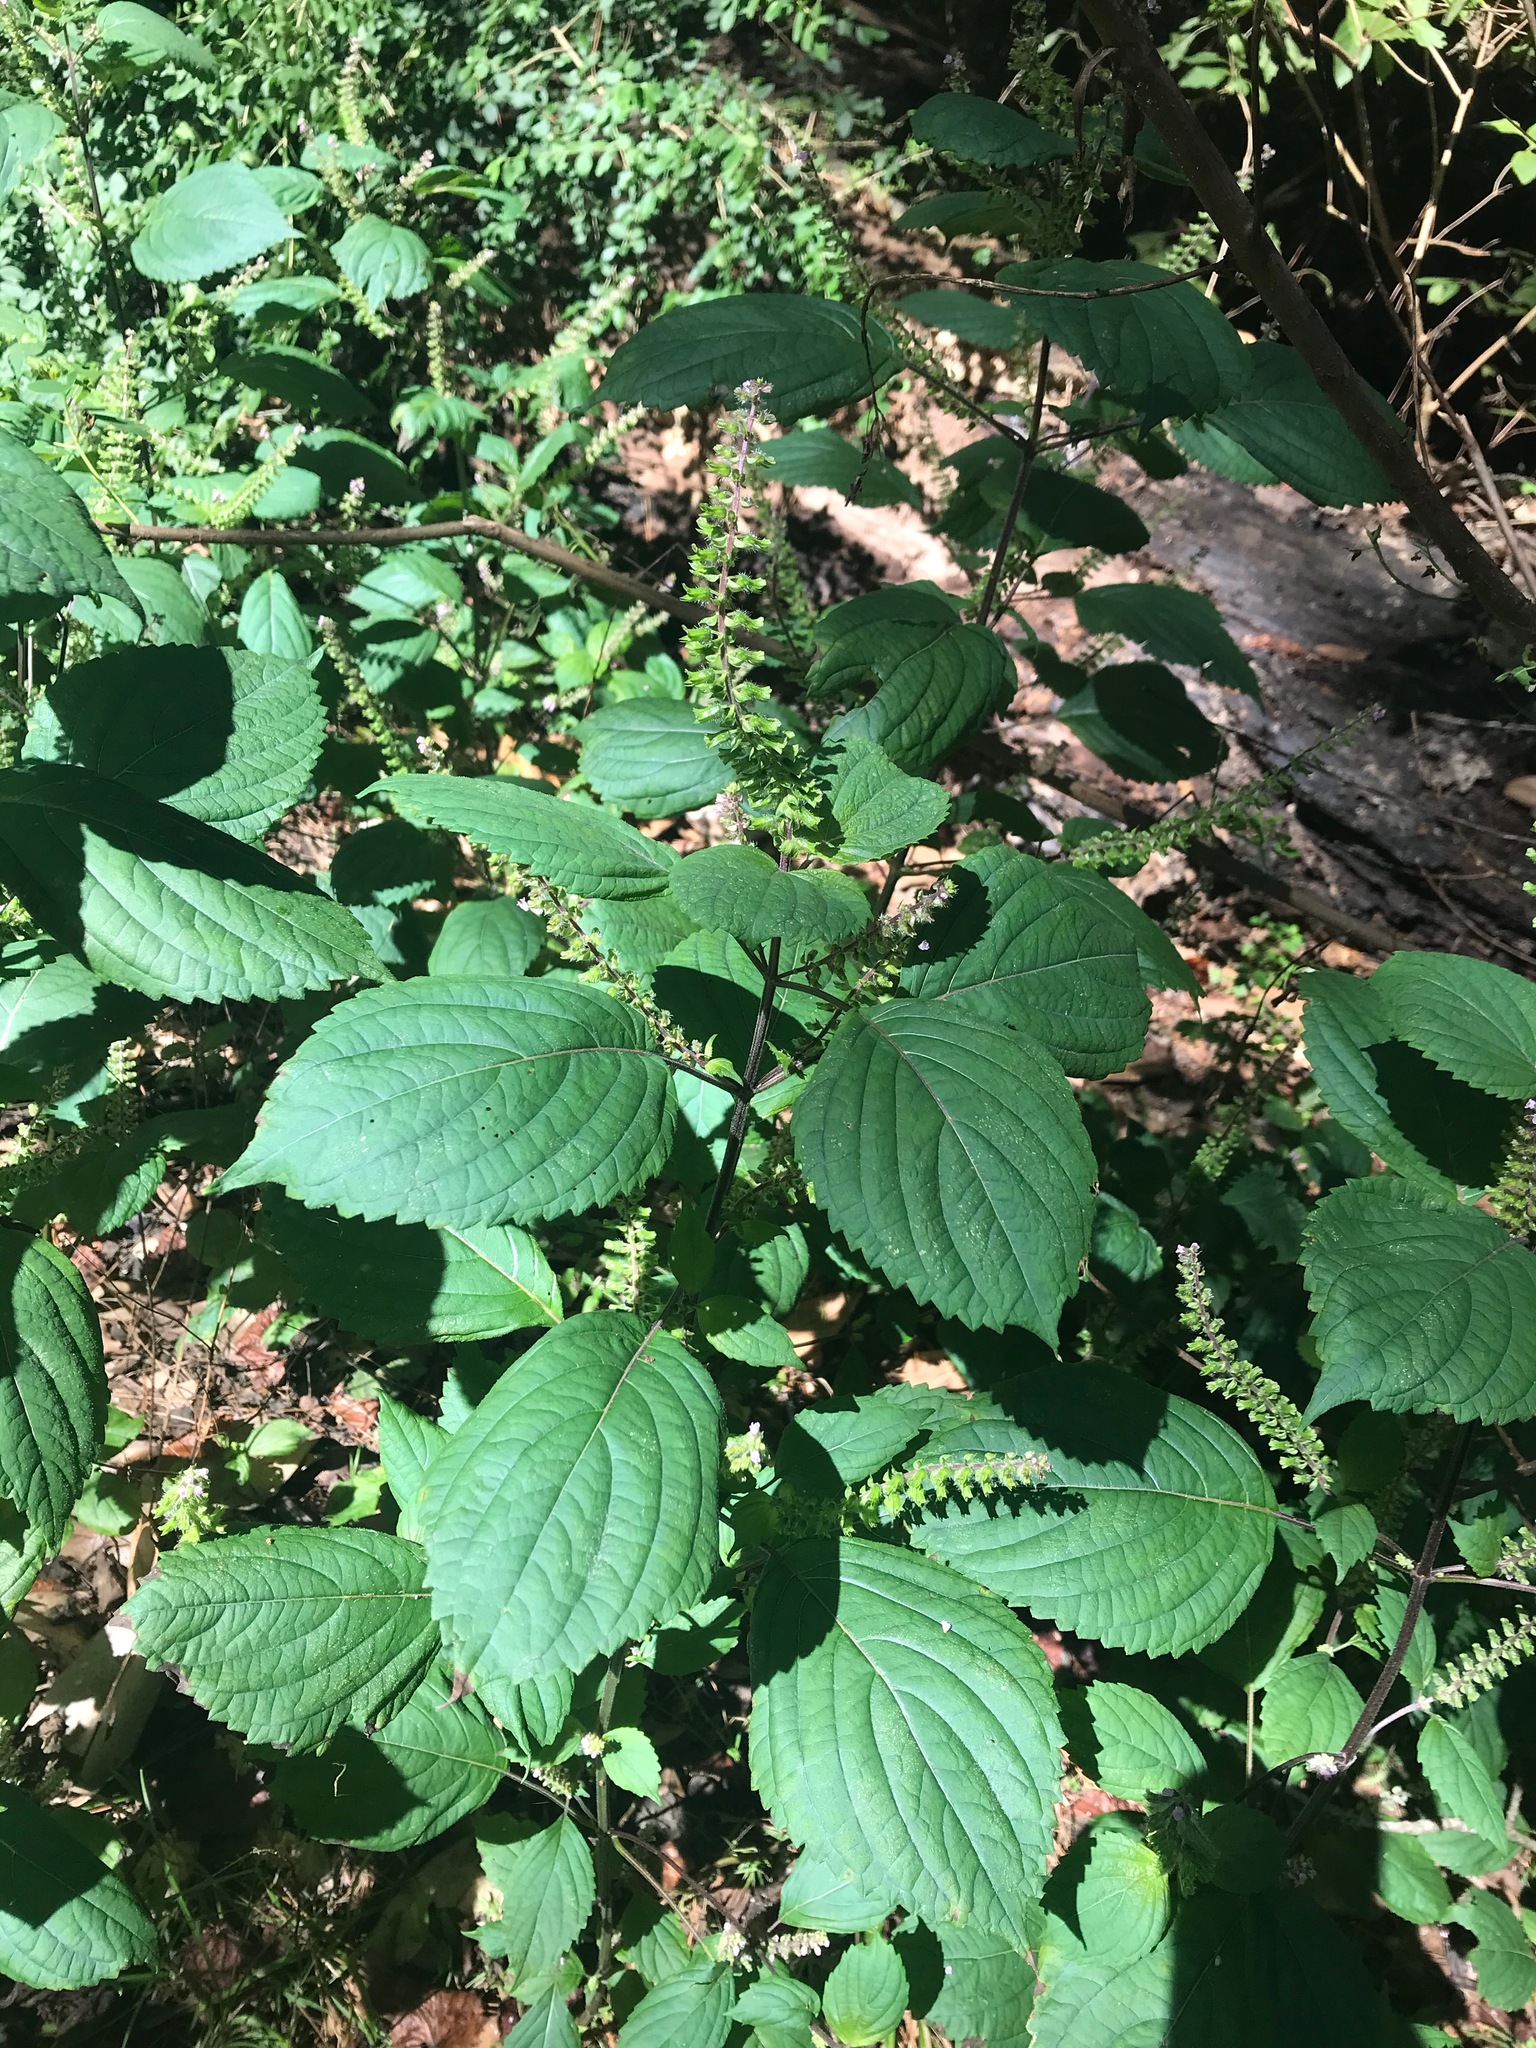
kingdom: Plantae
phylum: Tracheophyta
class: Magnoliopsida
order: Lamiales
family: Lamiaceae
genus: Perilla
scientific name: Perilla frutescens
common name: Perilla
